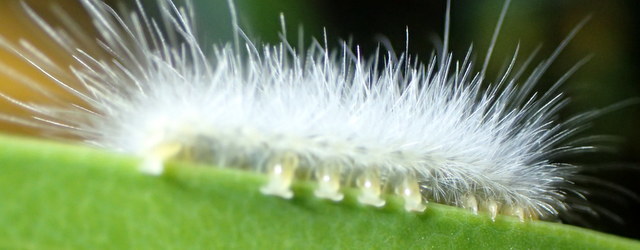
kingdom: Animalia
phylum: Arthropoda
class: Insecta
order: Lepidoptera
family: Erebidae
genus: Spilosoma
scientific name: Spilosoma virginica
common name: Virginia tiger moth
